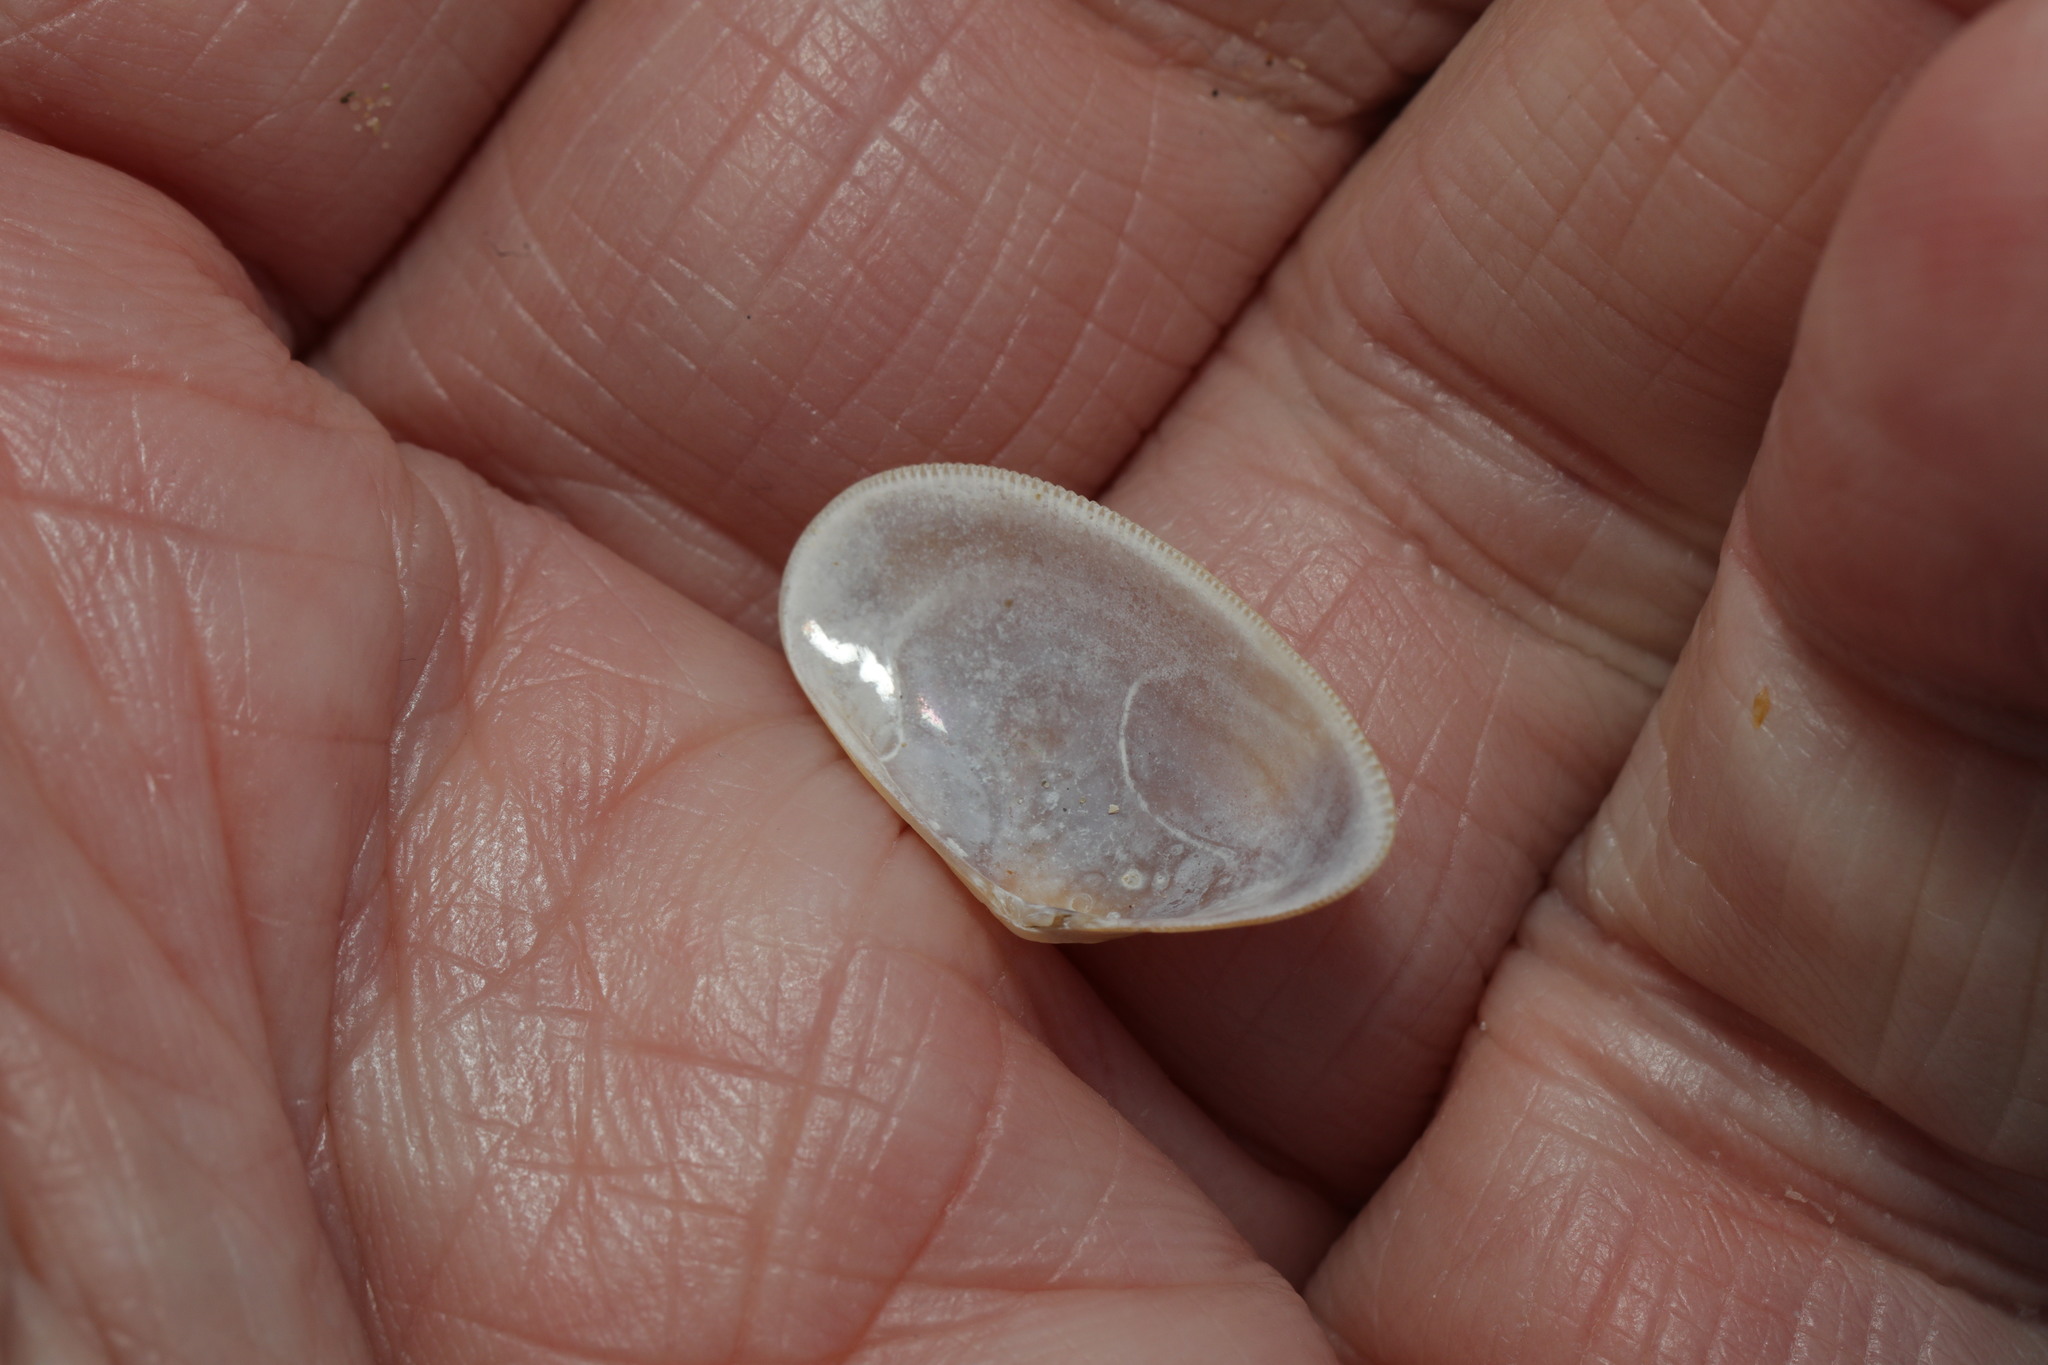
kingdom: Animalia
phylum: Mollusca
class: Bivalvia
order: Cardiida
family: Donacidae
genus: Donax
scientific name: Donax vittatus
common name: Banded wedge-shell
